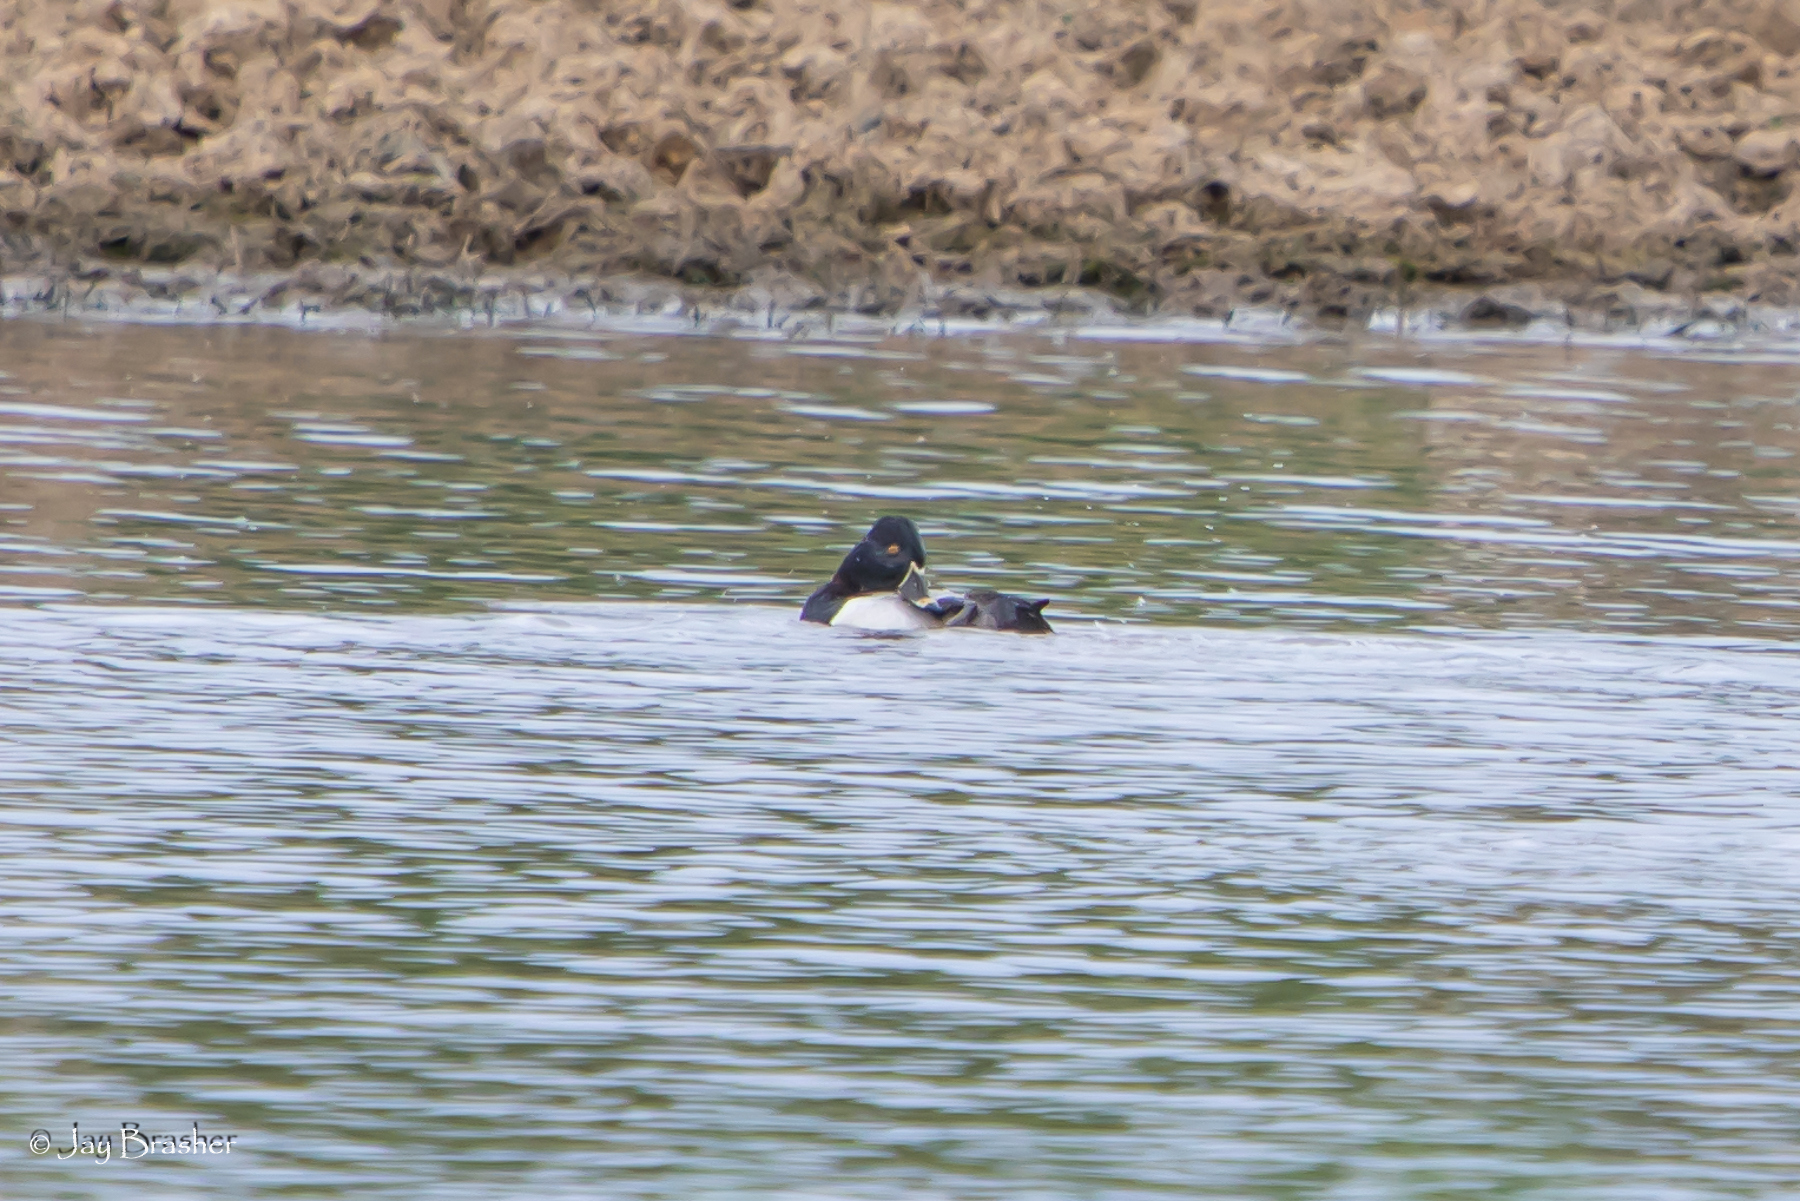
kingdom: Animalia
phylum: Chordata
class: Aves
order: Anseriformes
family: Anatidae
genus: Aythya
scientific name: Aythya collaris
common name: Ring-necked duck
